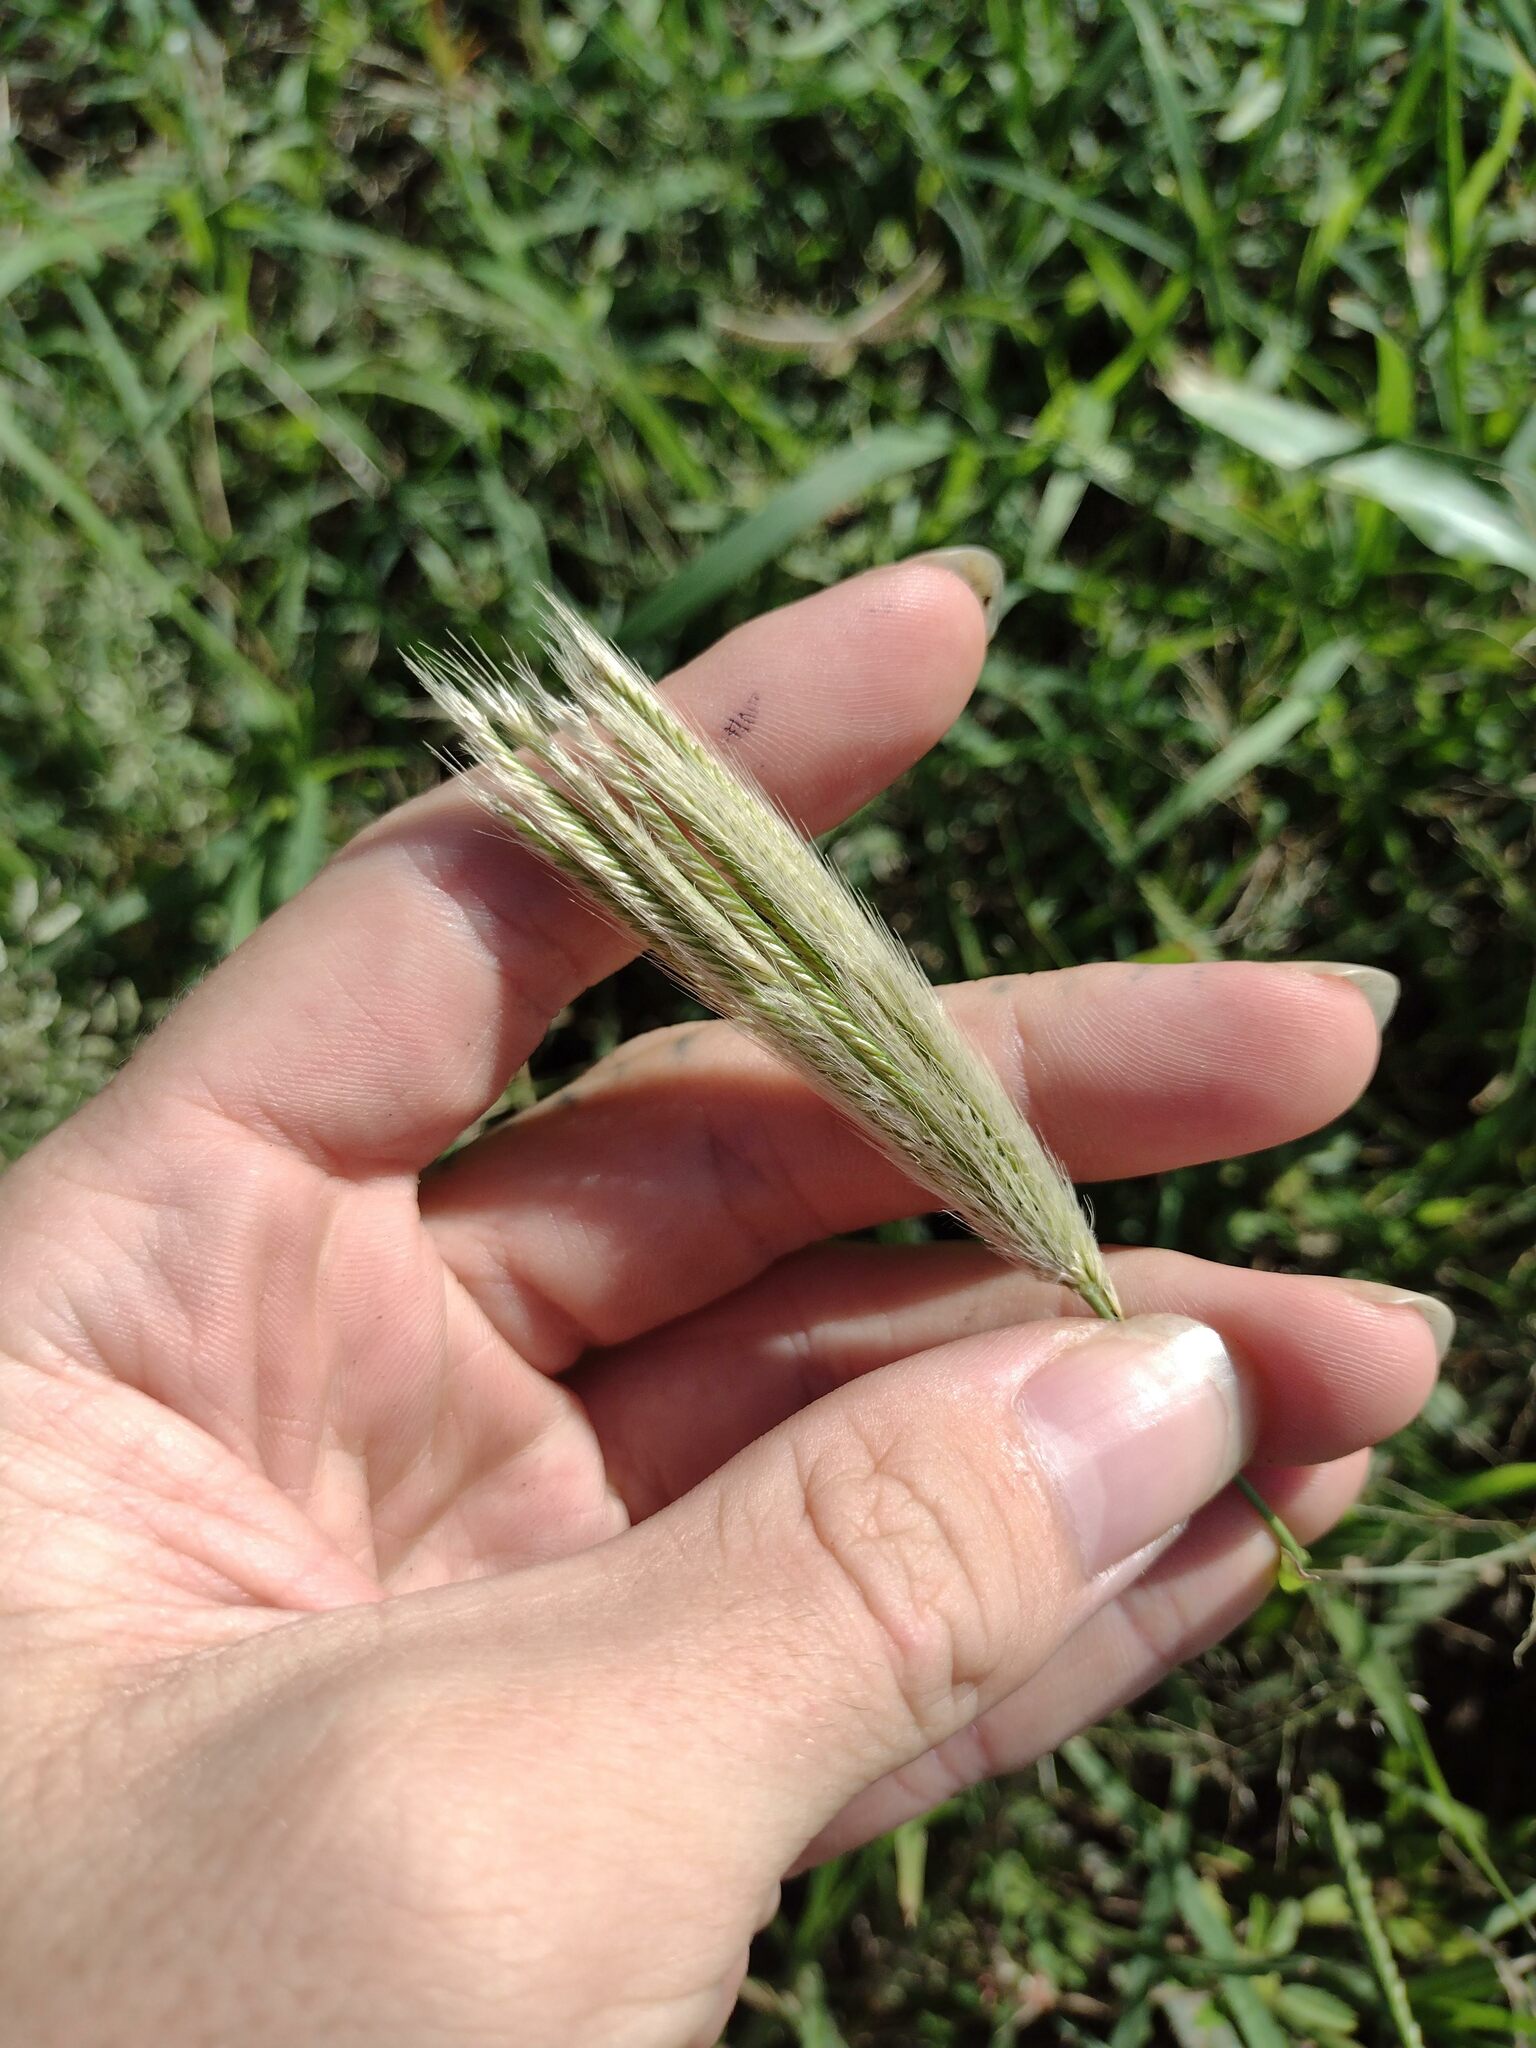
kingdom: Plantae
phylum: Tracheophyta
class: Liliopsida
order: Poales
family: Poaceae
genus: Chloris
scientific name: Chloris virgata
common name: Feathery rhodes-grass
